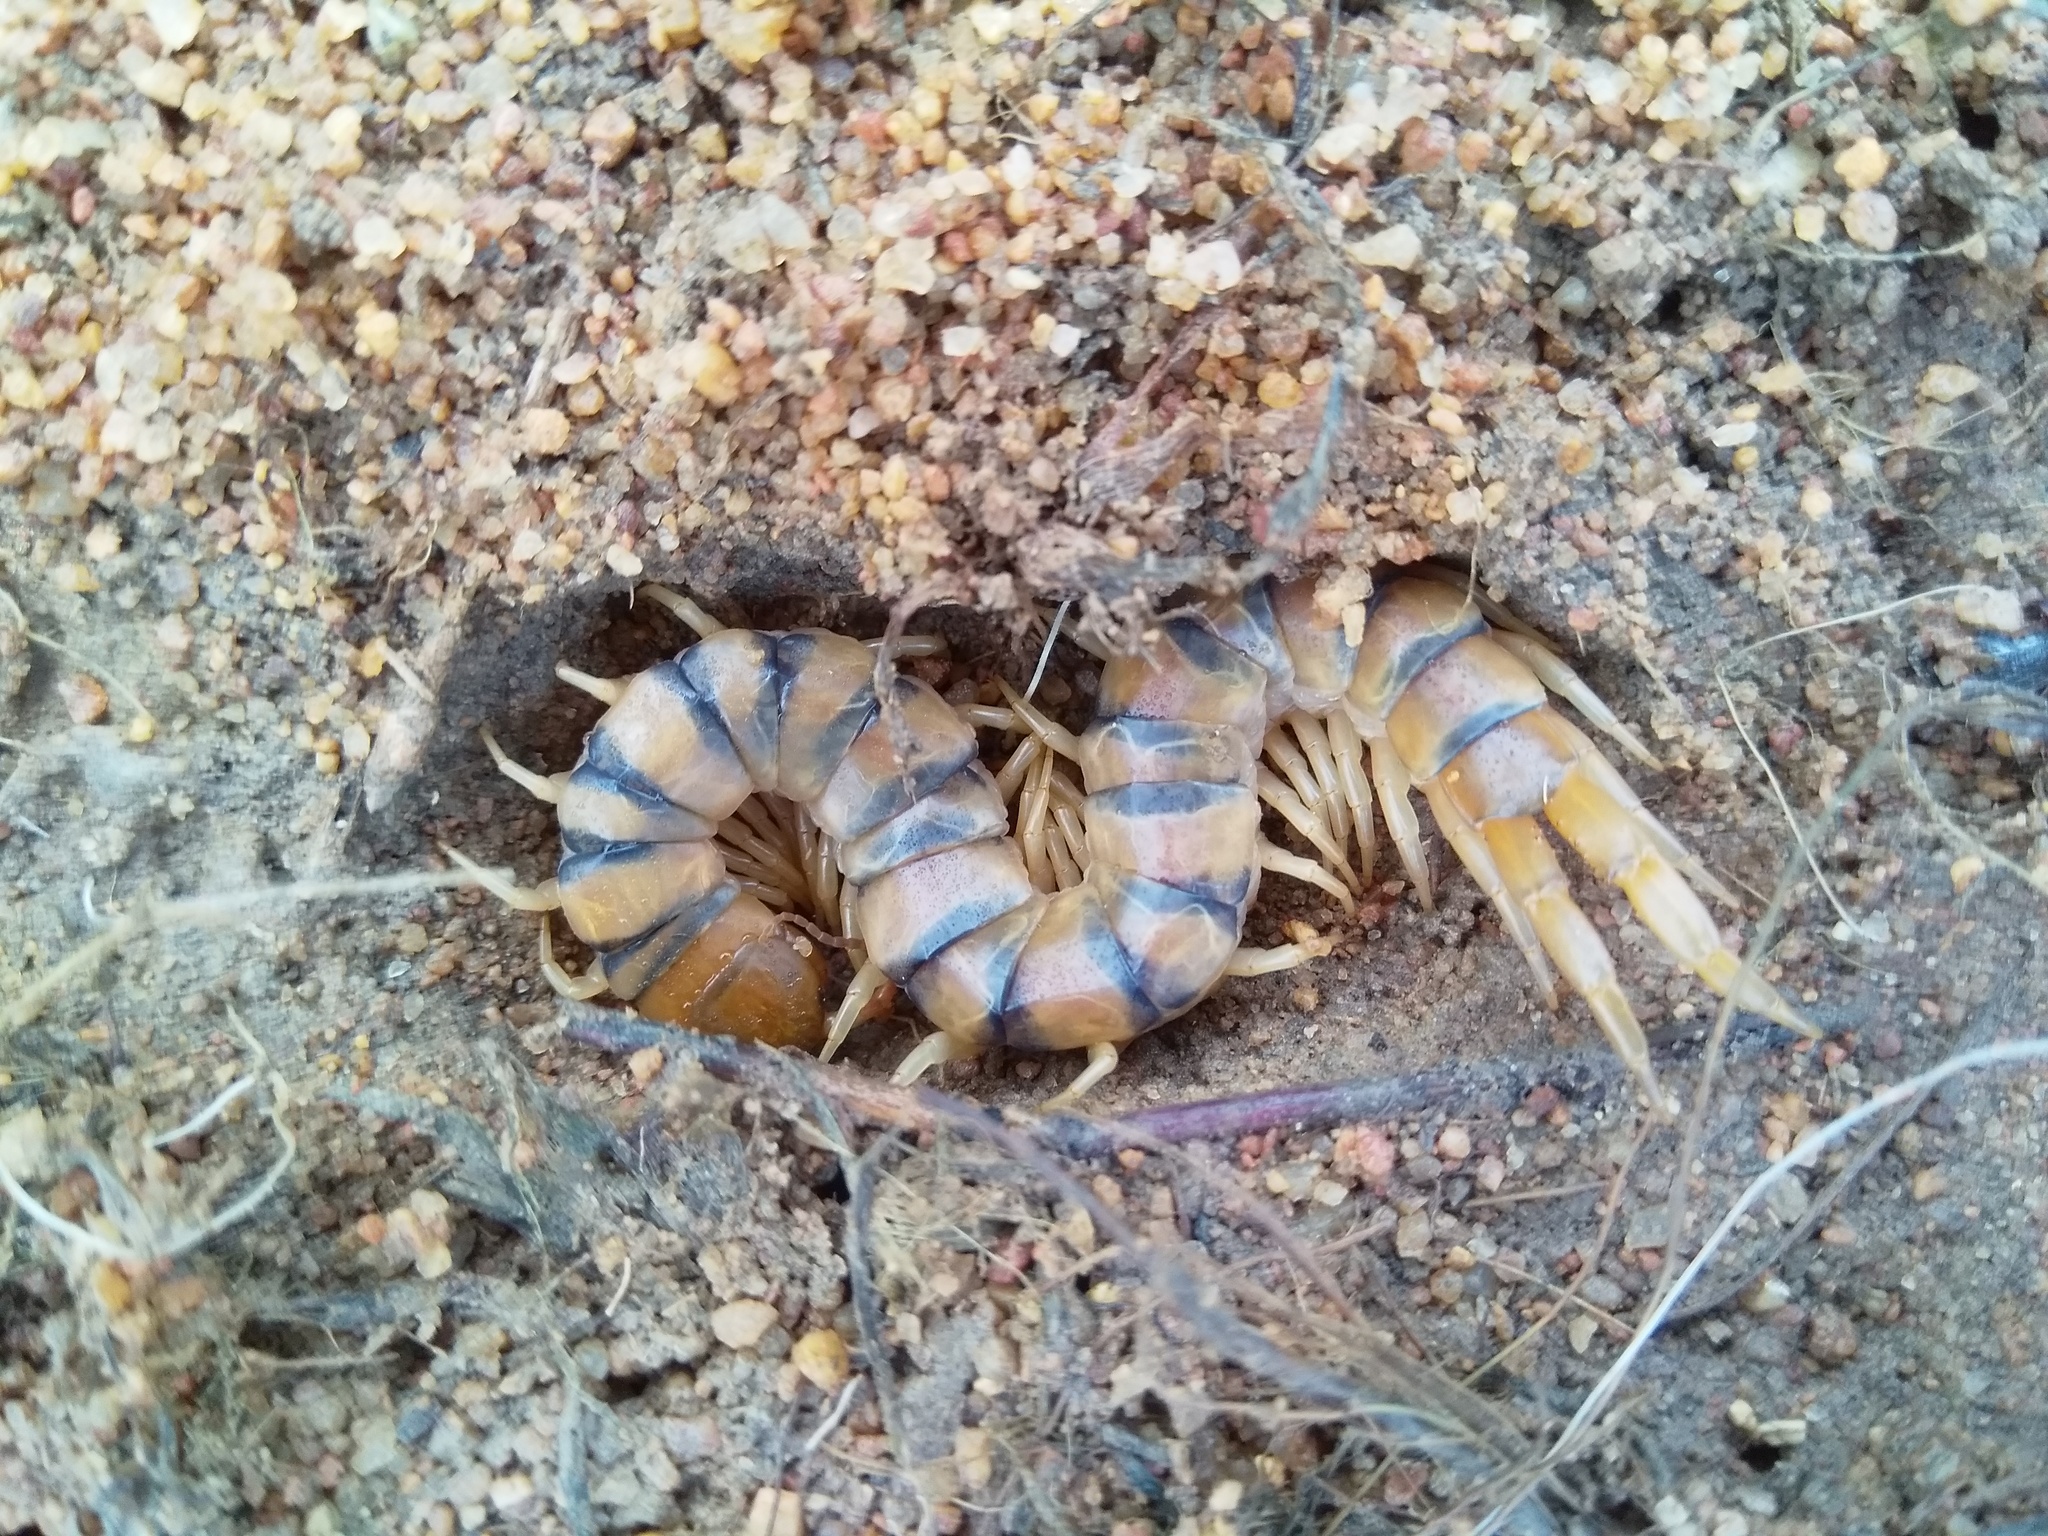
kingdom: Animalia
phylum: Arthropoda
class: Chilopoda
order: Scolopendromorpha
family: Scolopendridae
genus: Scolopendra
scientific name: Scolopendra morsitans
